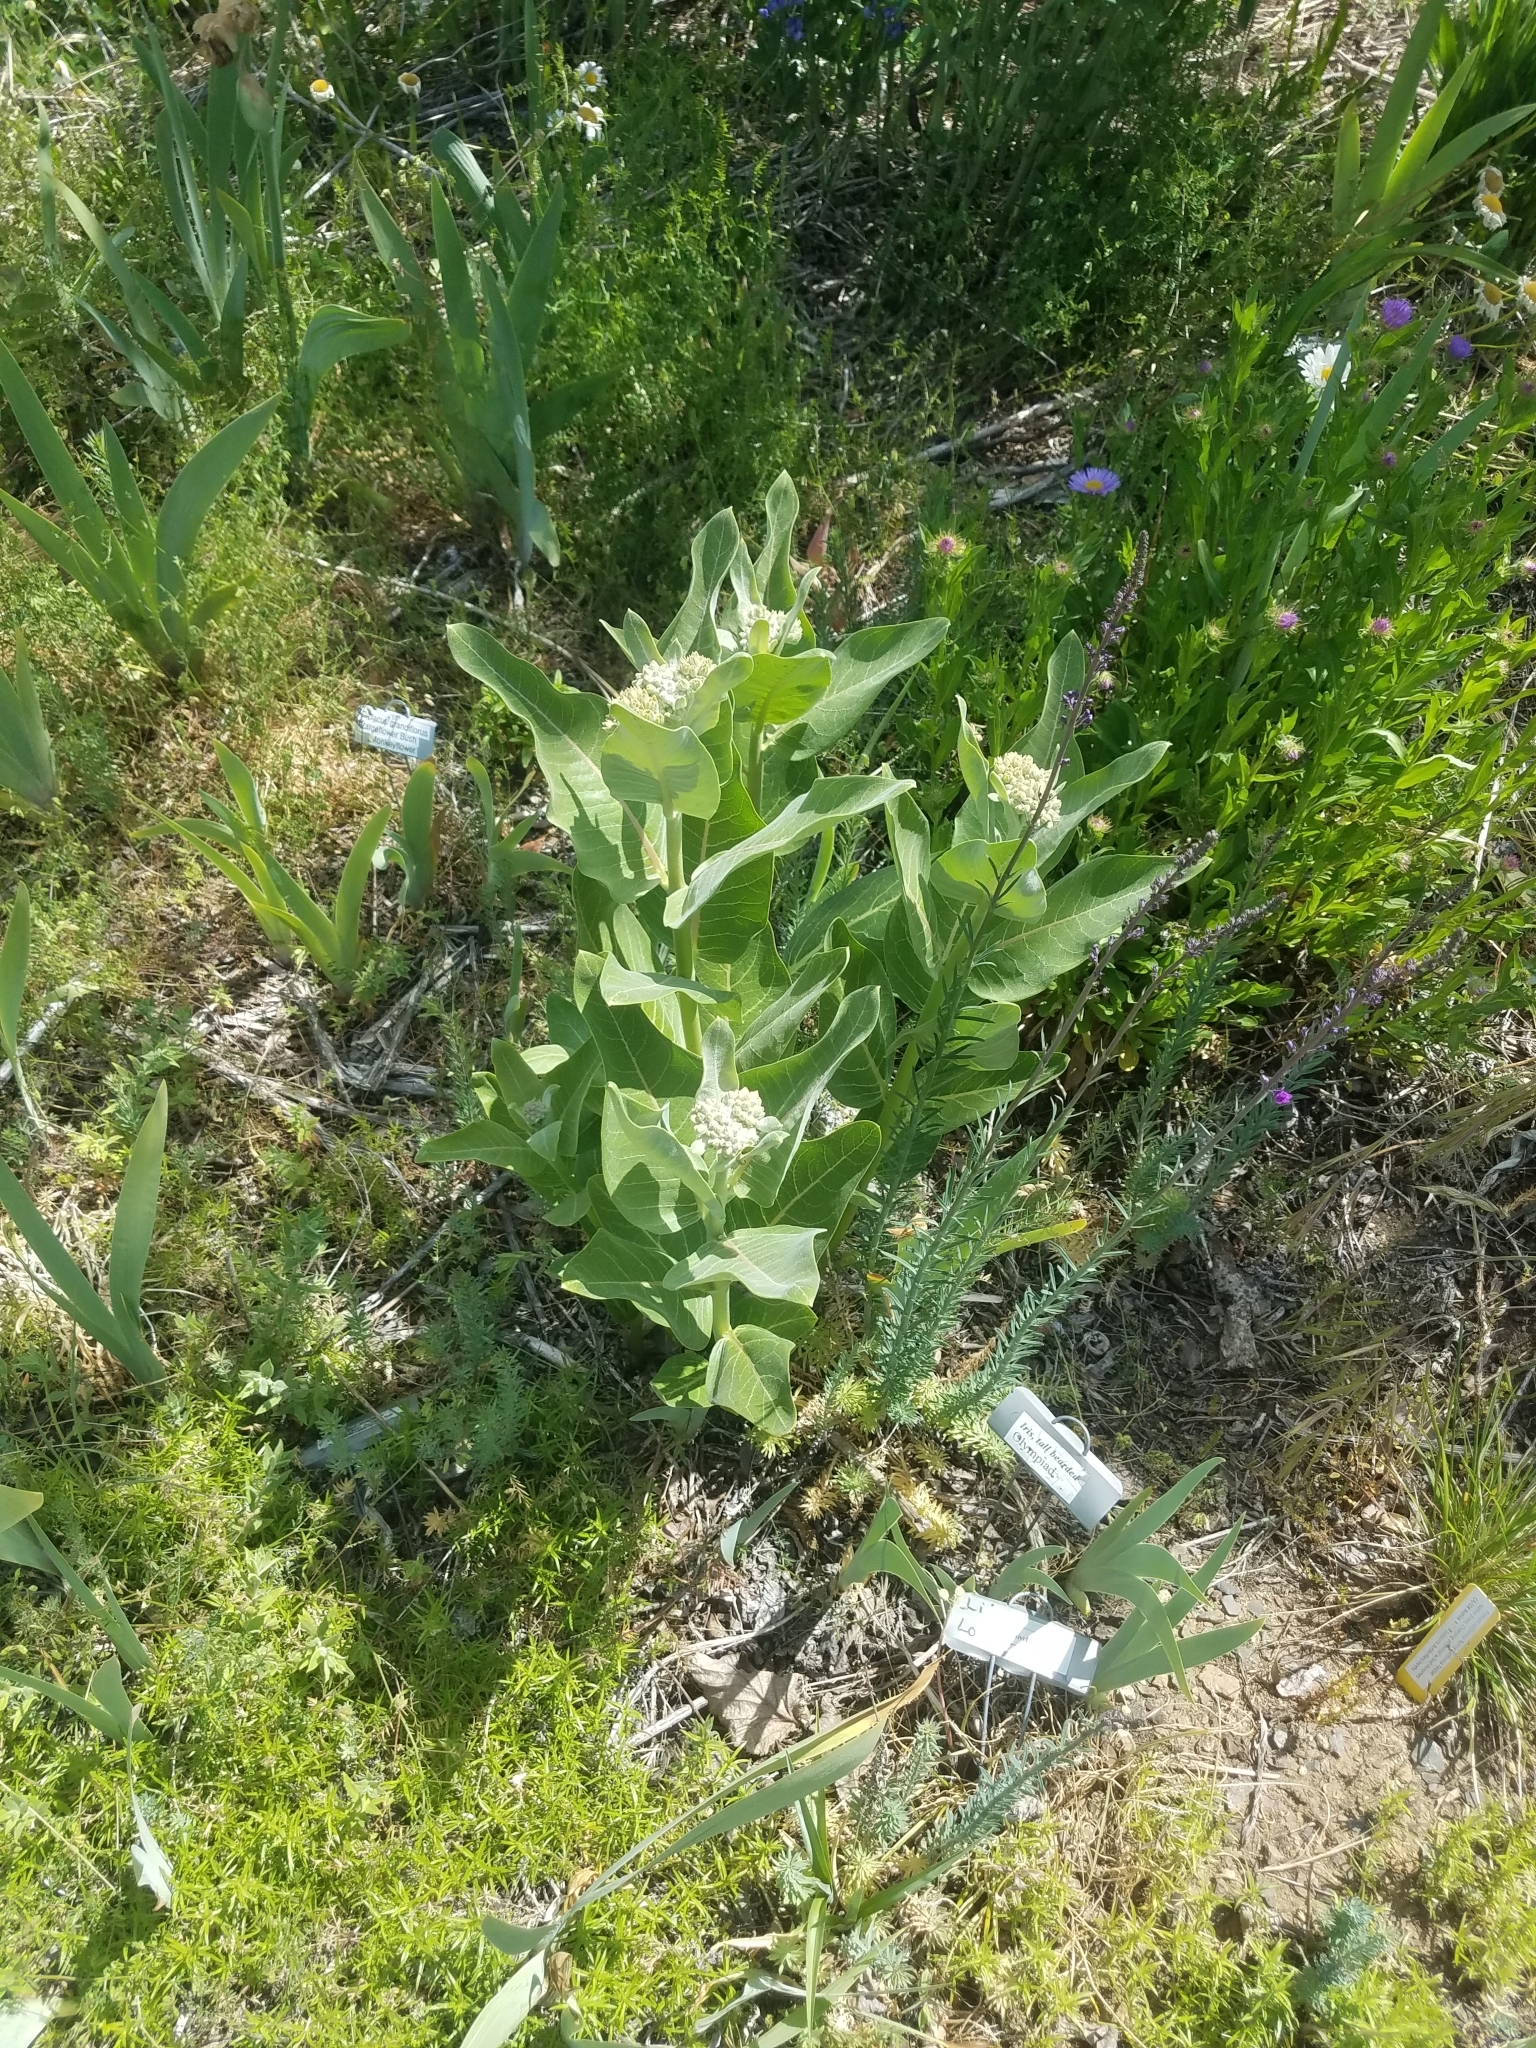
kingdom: Plantae
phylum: Tracheophyta
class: Magnoliopsida
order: Gentianales
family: Apocynaceae
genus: Asclepias
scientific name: Asclepias speciosa
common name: Showy milkweed
